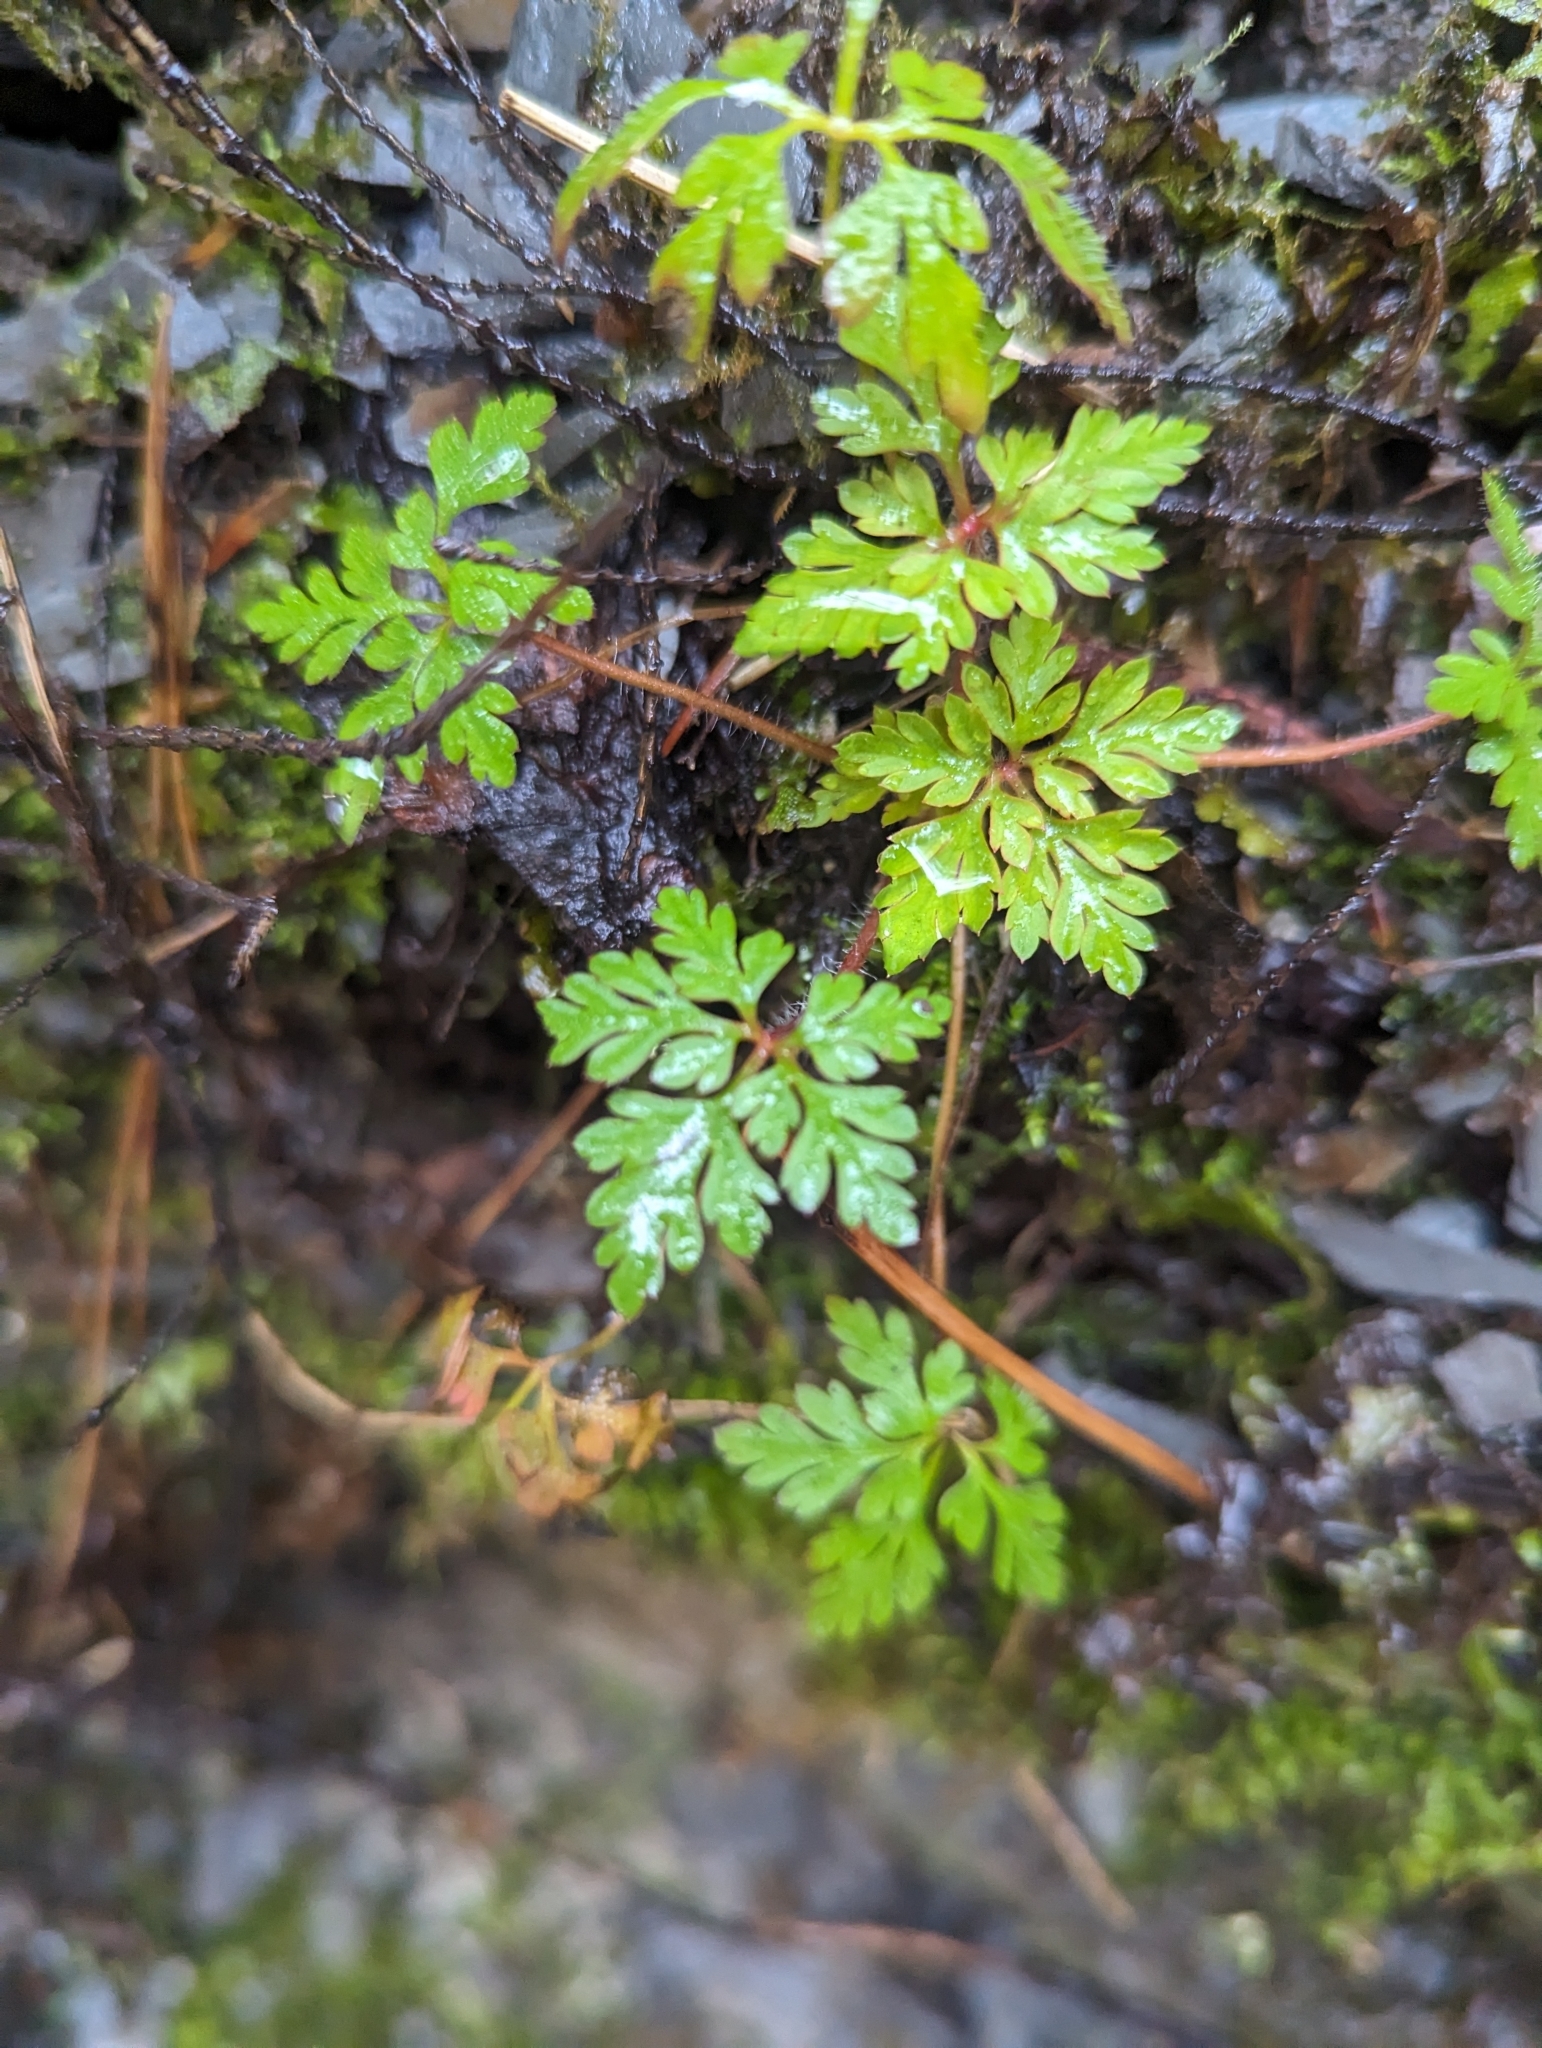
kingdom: Plantae
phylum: Tracheophyta
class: Magnoliopsida
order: Geraniales
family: Geraniaceae
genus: Geranium
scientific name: Geranium robertianum
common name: Herb-robert
